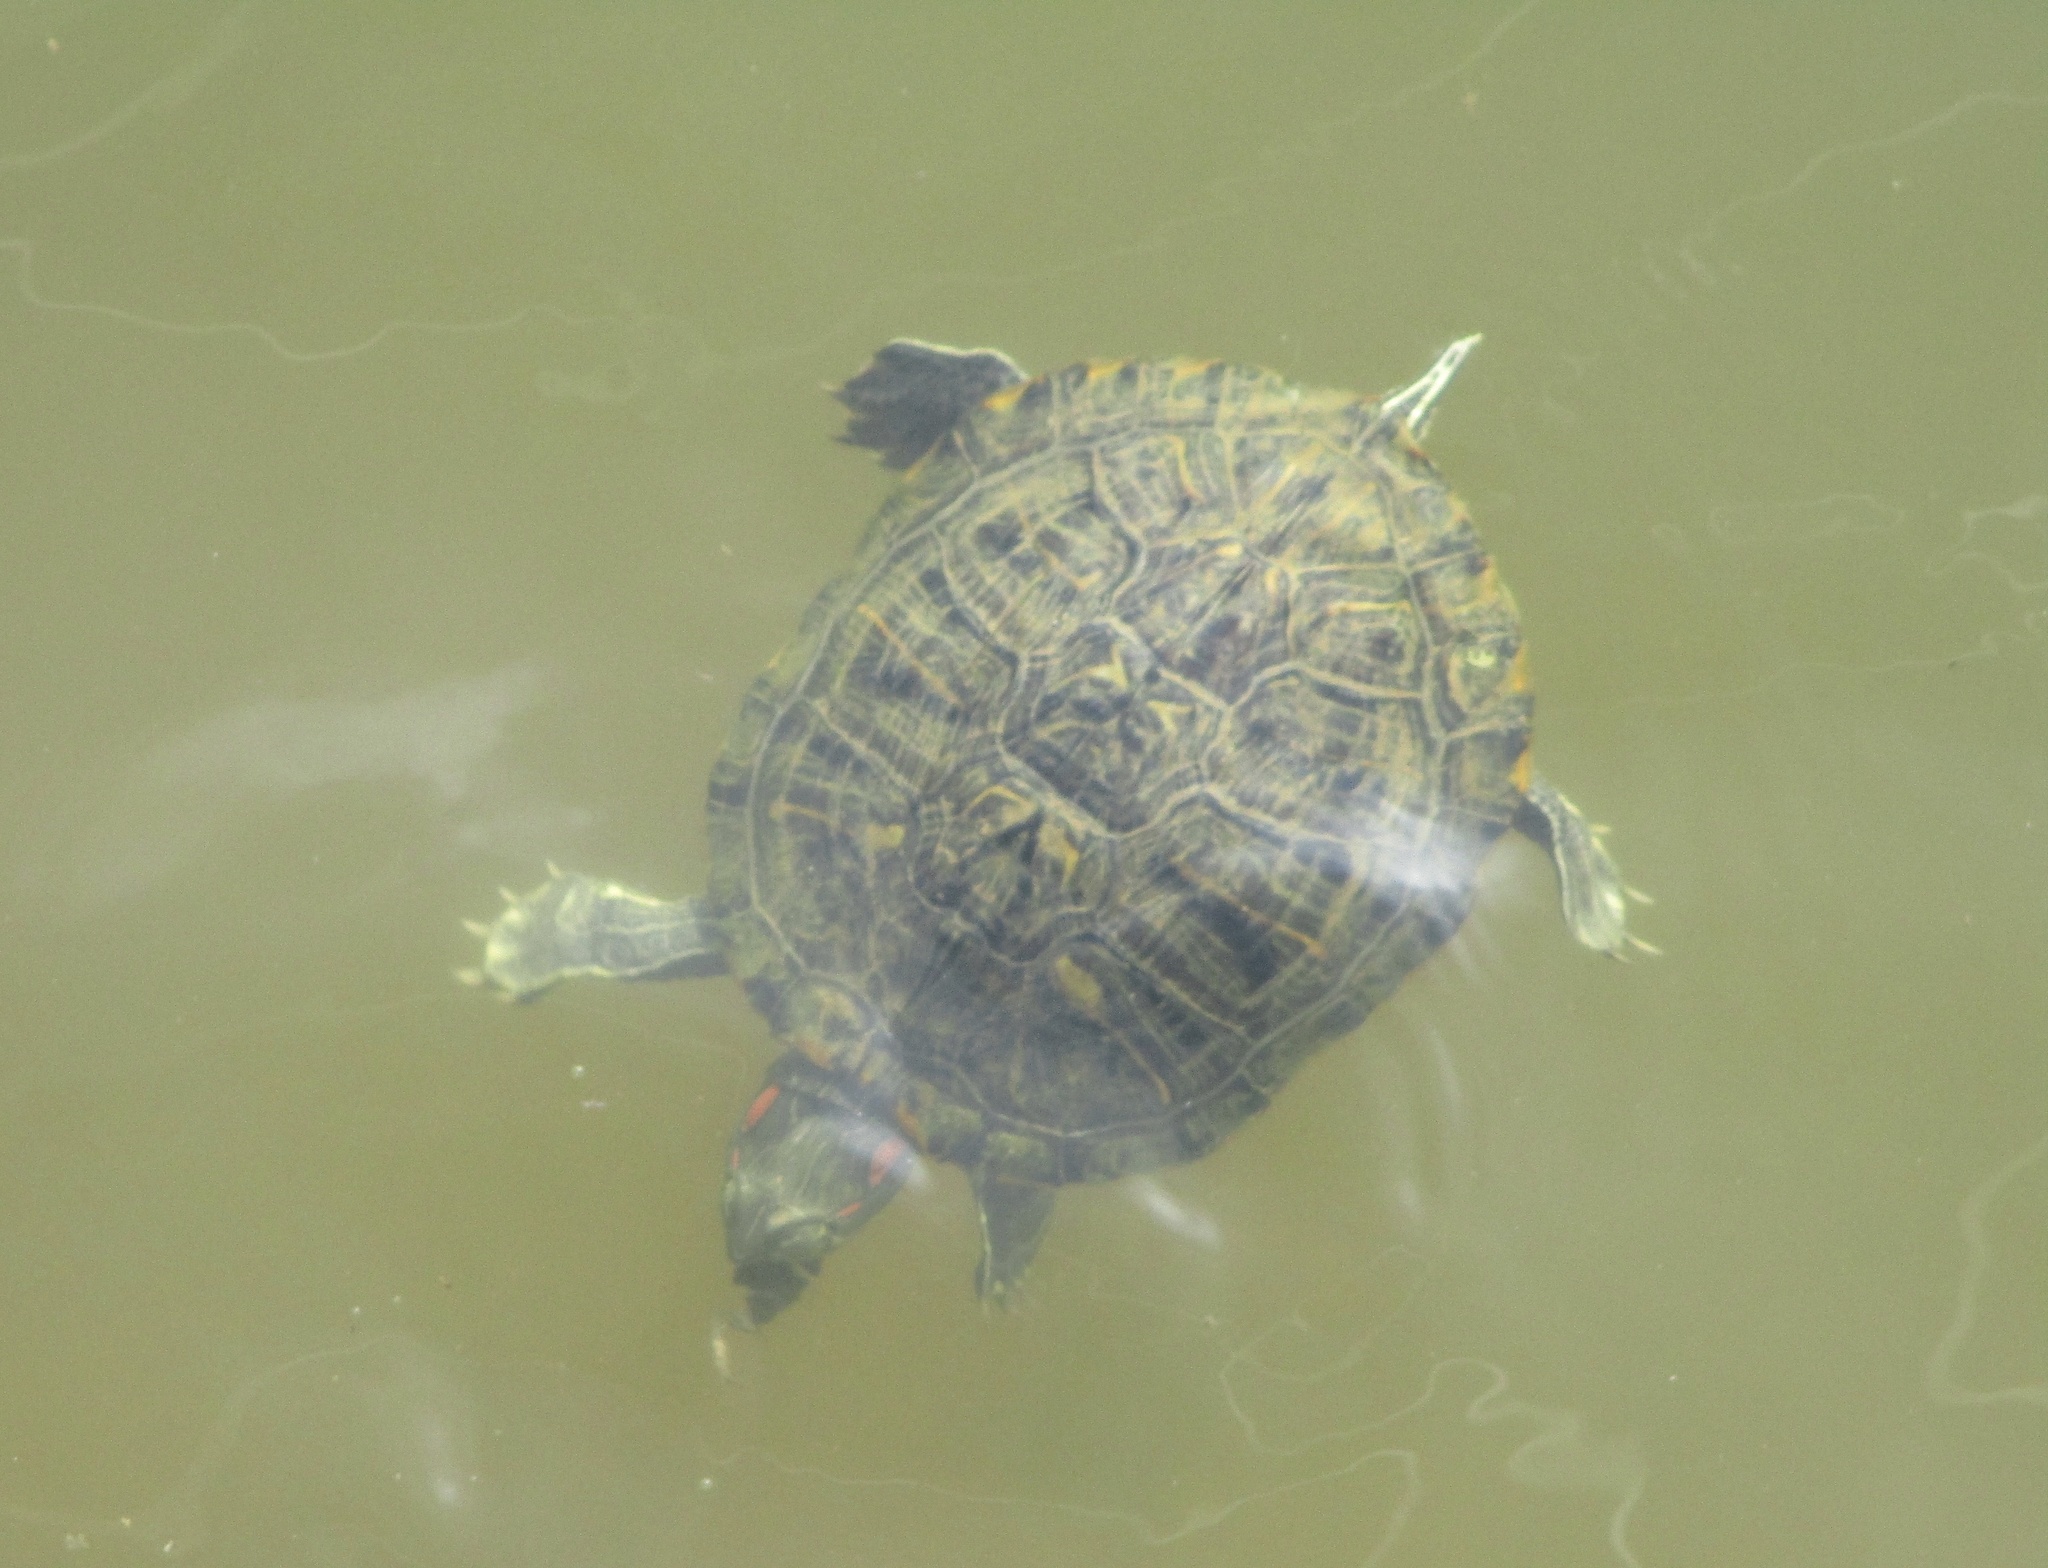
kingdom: Animalia
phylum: Chordata
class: Testudines
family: Emydidae
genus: Trachemys
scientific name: Trachemys scripta
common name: Slider
